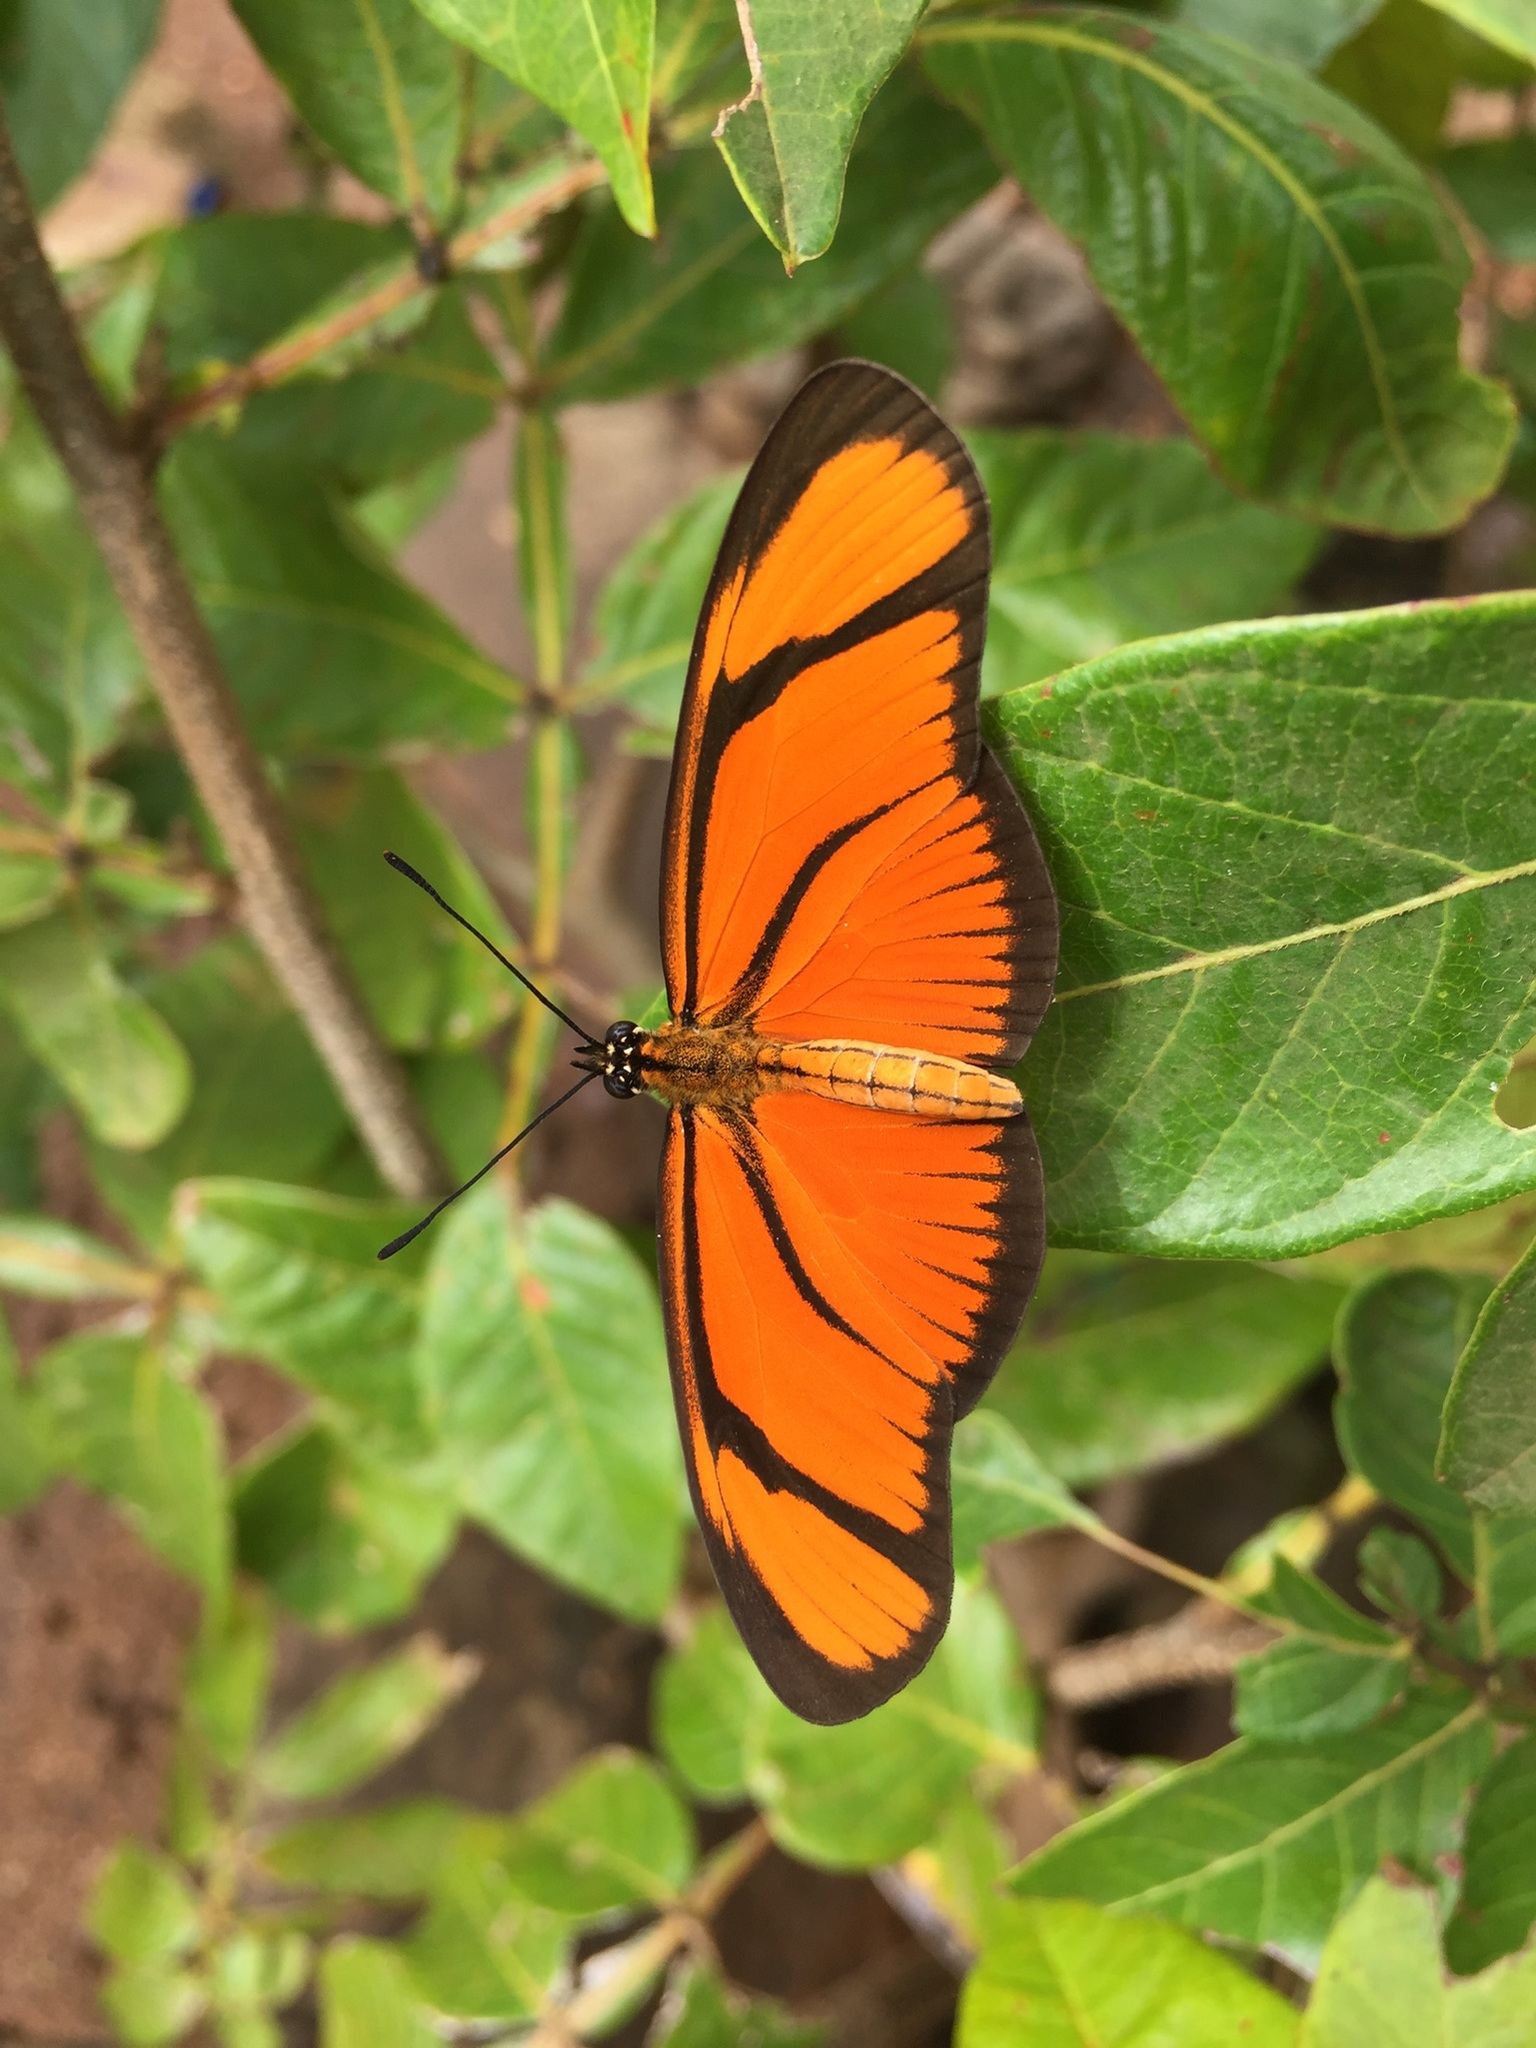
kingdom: Animalia
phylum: Arthropoda
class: Insecta
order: Lepidoptera
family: Nymphalidae
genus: Heliconius
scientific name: Heliconius aliphera
